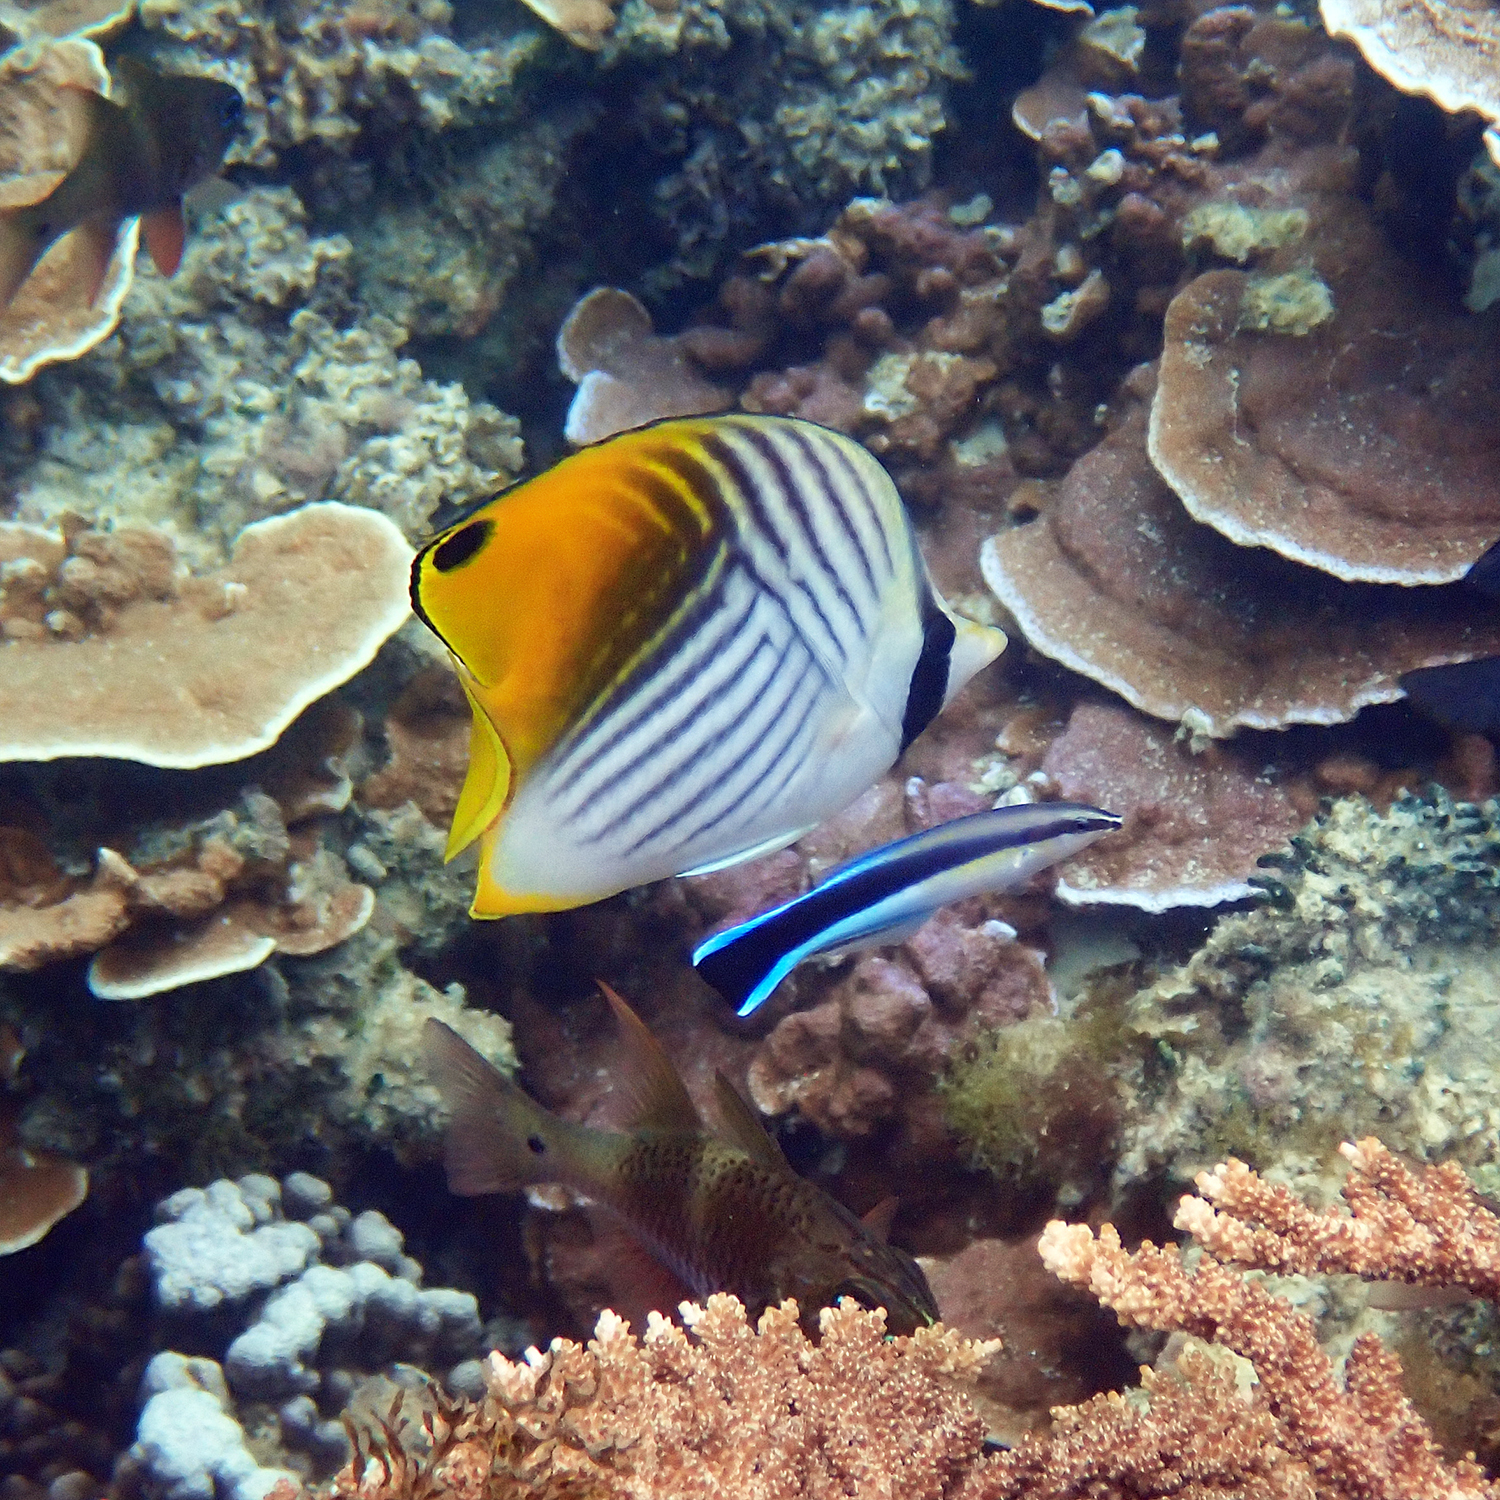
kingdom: Animalia
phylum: Chordata
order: Perciformes
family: Chaetodontidae
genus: Chaetodon
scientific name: Chaetodon auriga
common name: Threadfin butterflyfish
